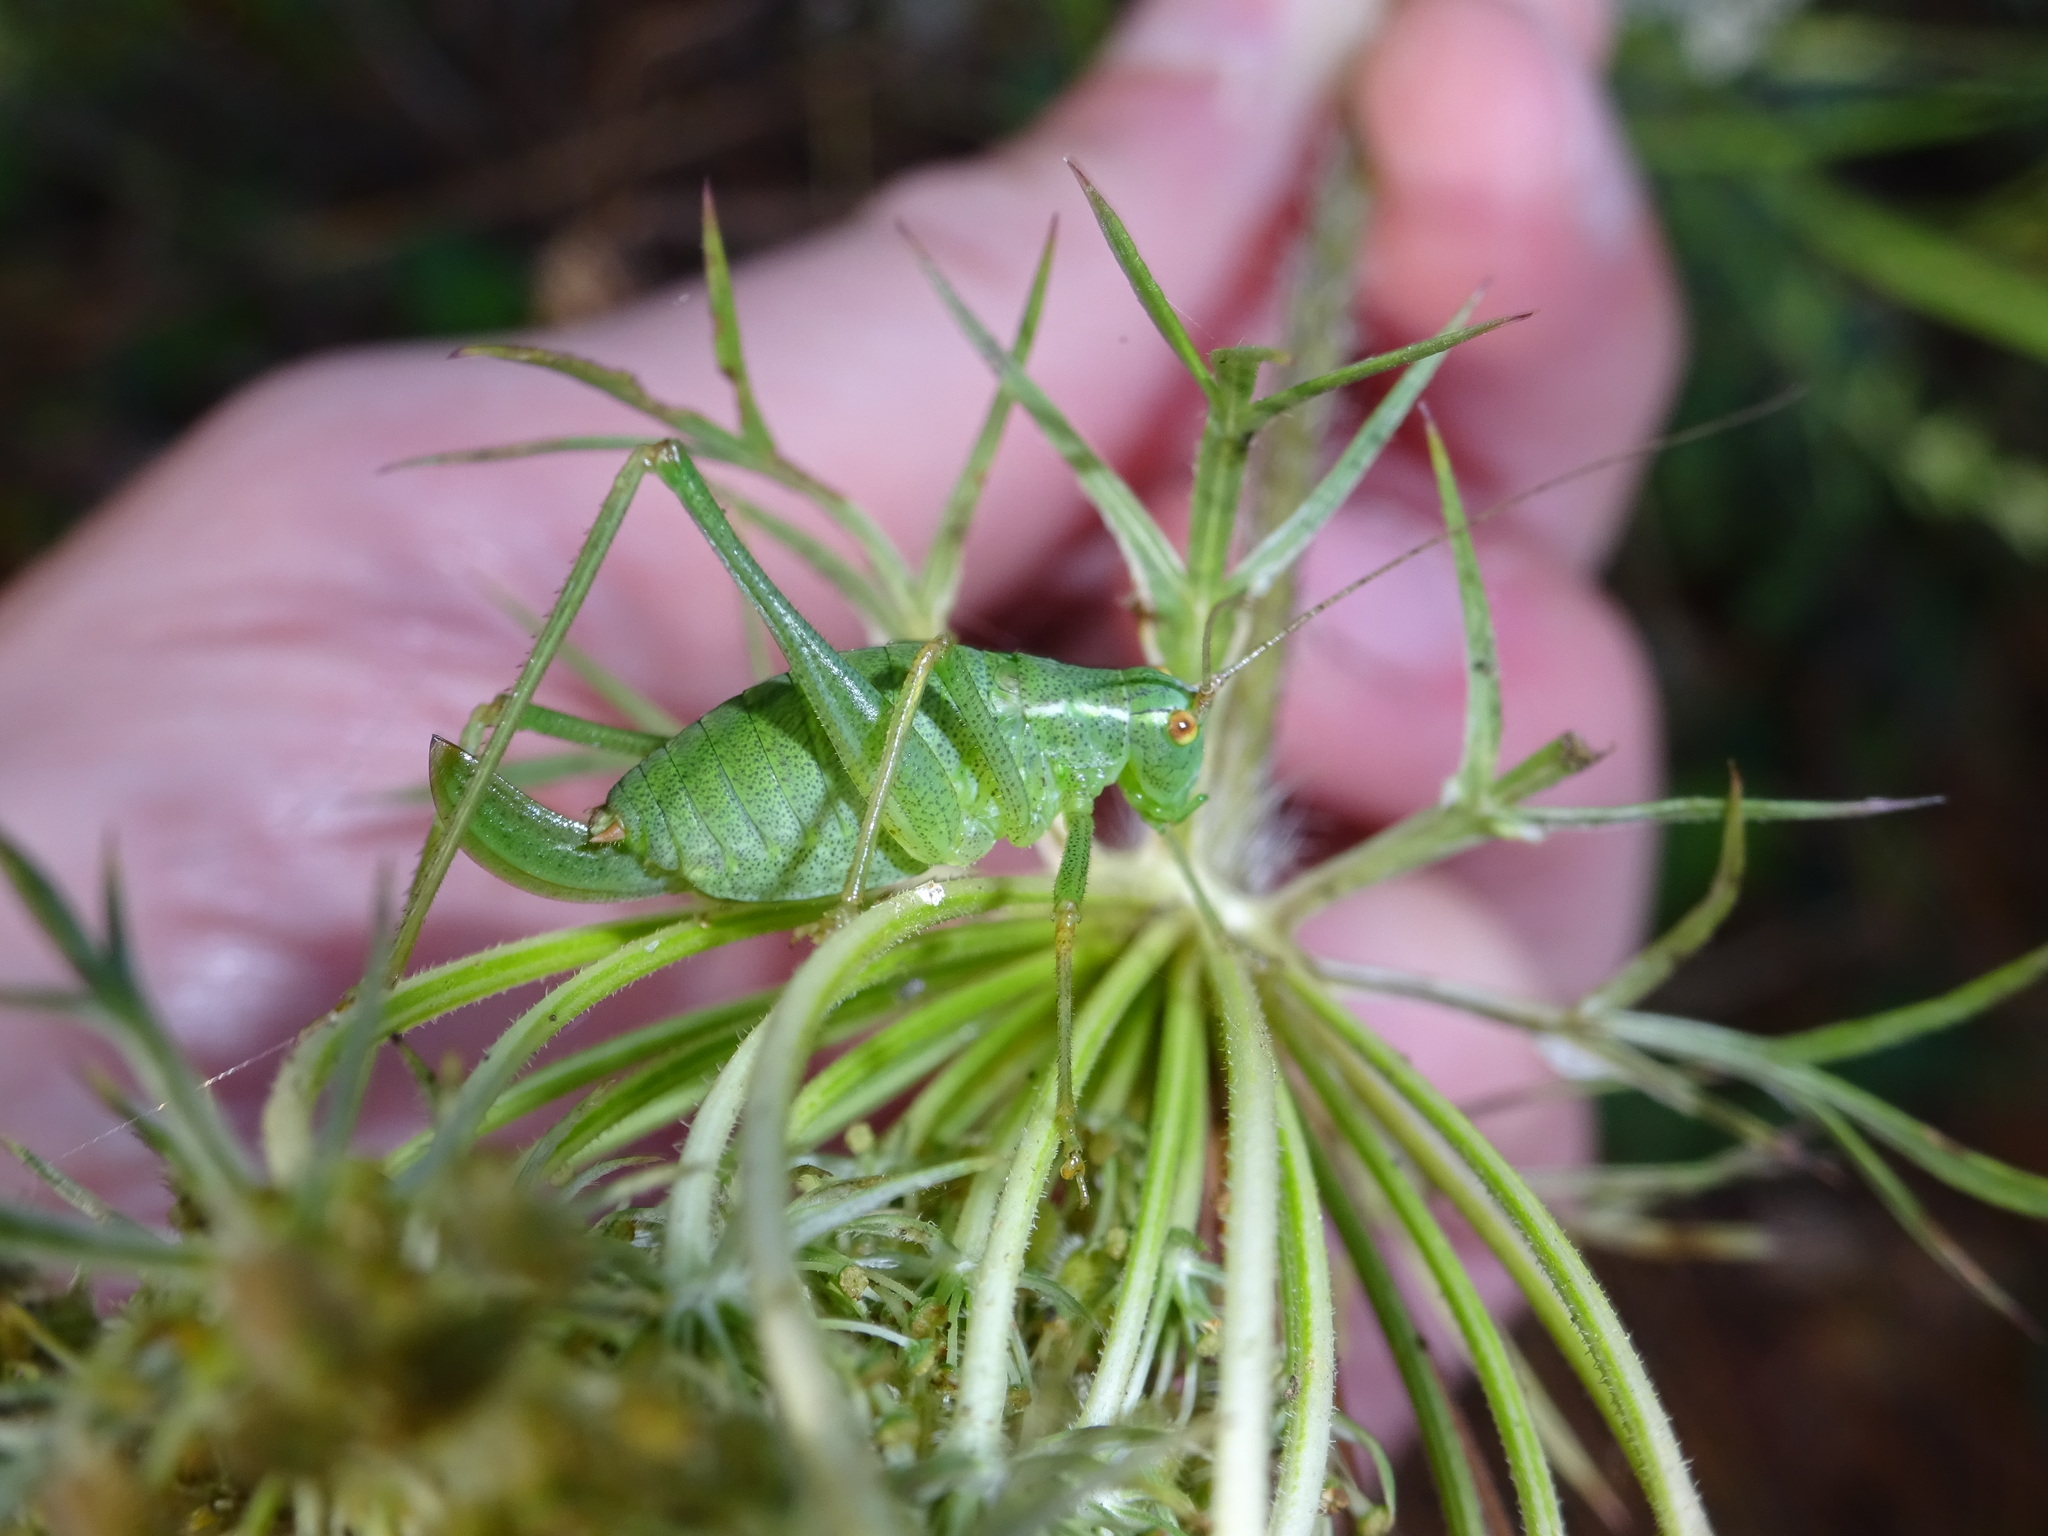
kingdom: Animalia
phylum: Arthropoda
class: Insecta
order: Orthoptera
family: Tettigoniidae
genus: Leptophyes
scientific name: Leptophyes punctatissima
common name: Speckled bush-cricket
